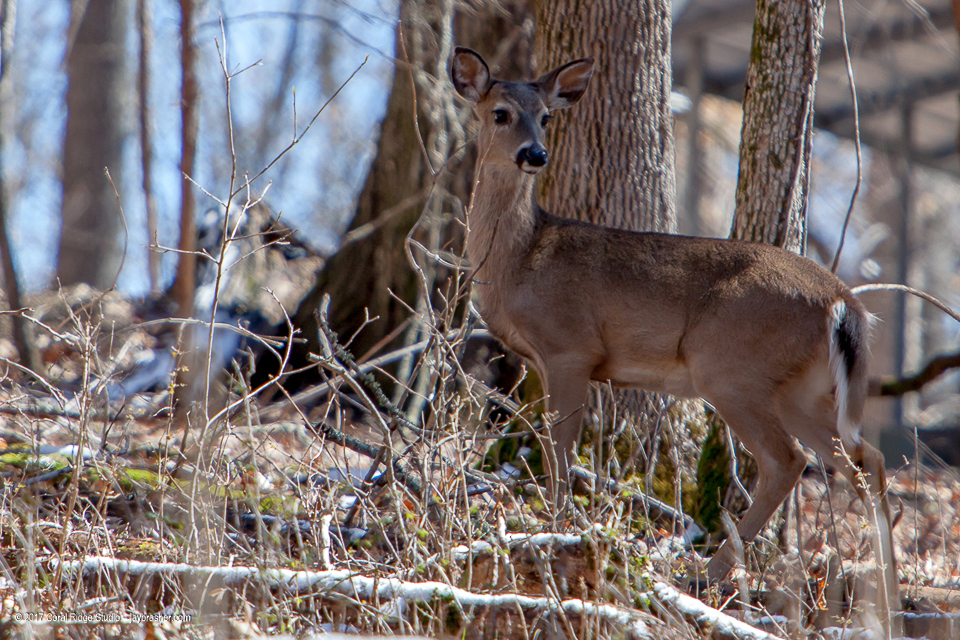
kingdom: Animalia
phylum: Chordata
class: Mammalia
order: Artiodactyla
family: Cervidae
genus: Odocoileus
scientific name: Odocoileus virginianus
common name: White-tailed deer
